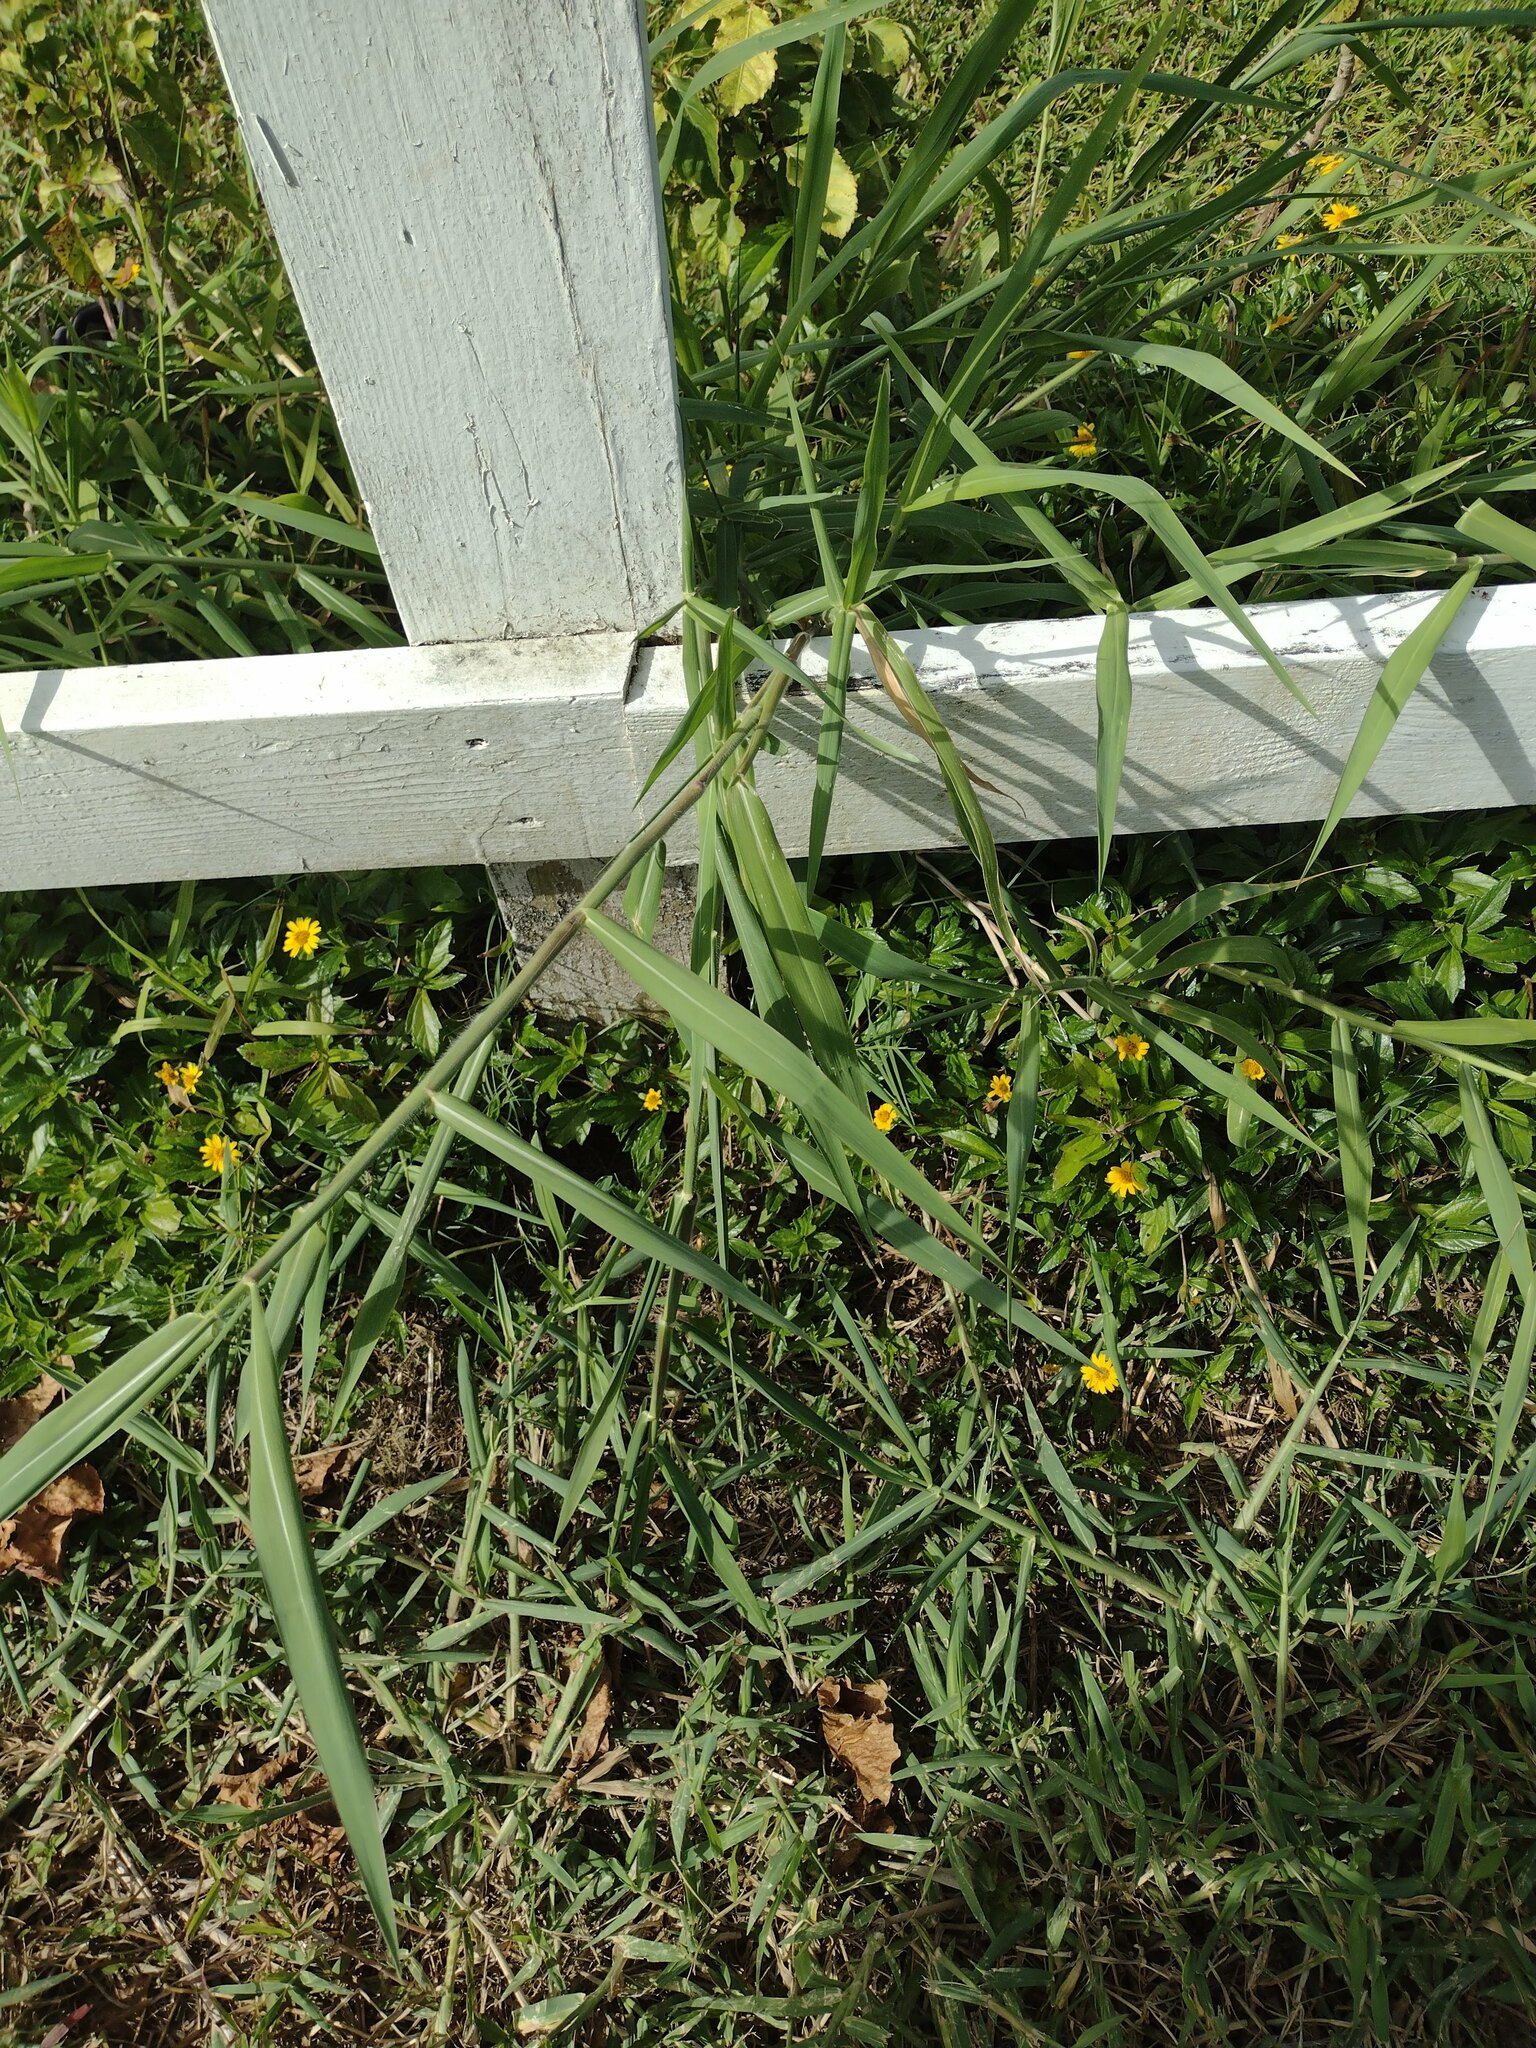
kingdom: Plantae
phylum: Tracheophyta
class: Liliopsida
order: Poales
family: Poaceae
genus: Urochloa
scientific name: Urochloa mutica
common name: Para grass
